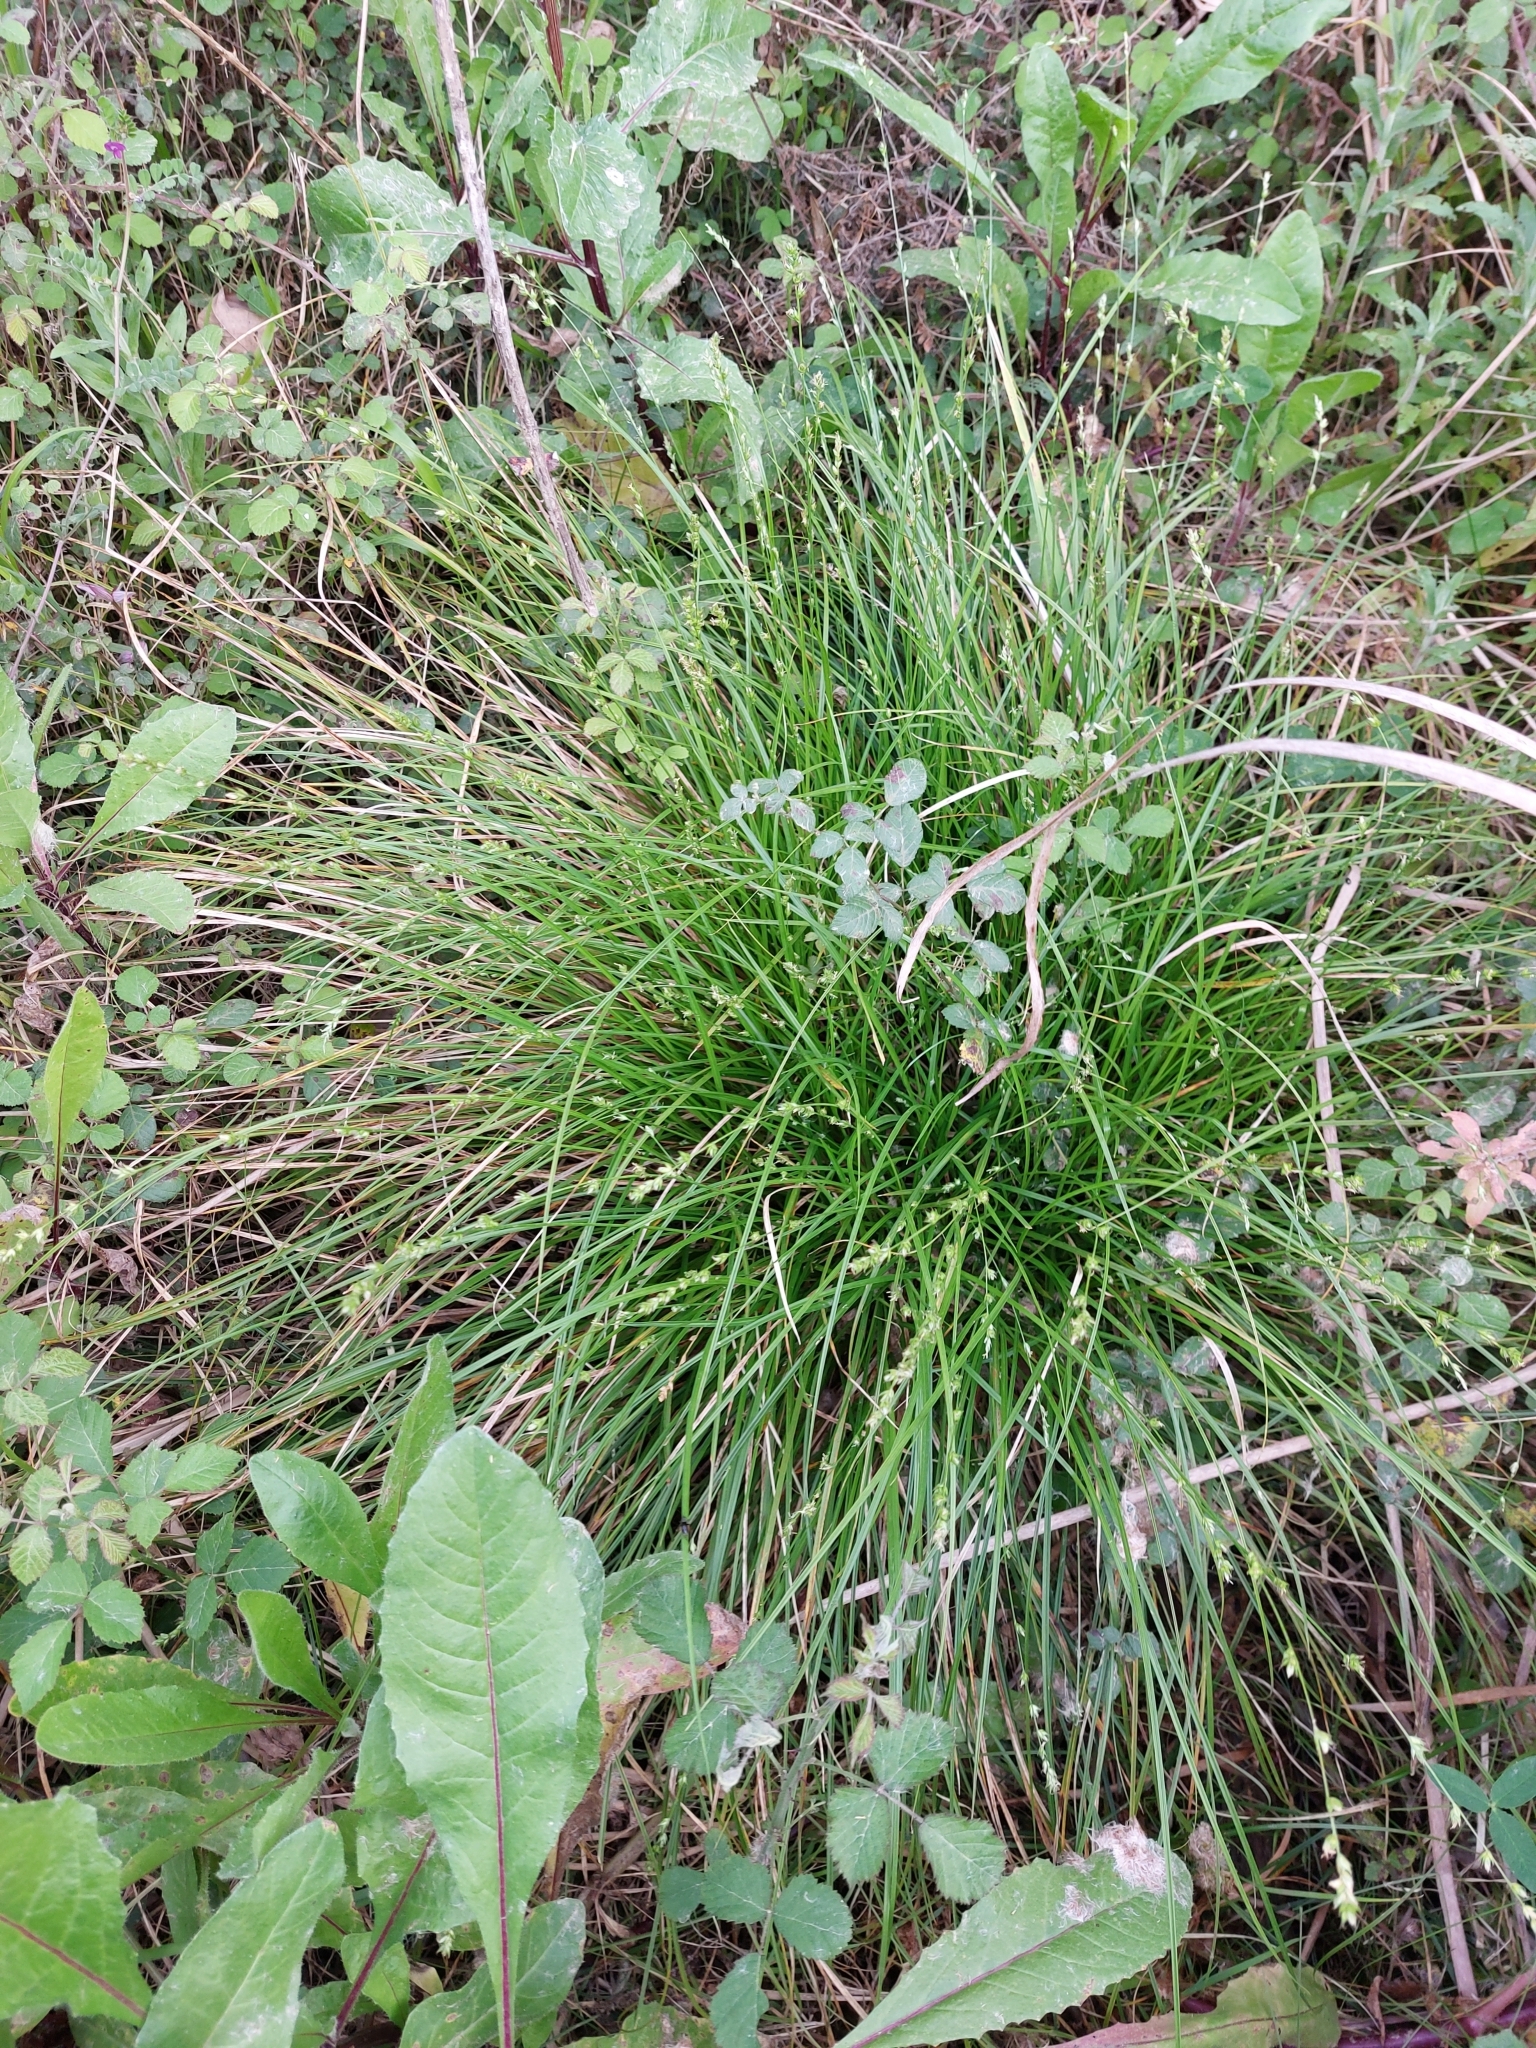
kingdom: Plantae
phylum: Tracheophyta
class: Liliopsida
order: Poales
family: Cyperaceae
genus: Carex
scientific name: Carex remota
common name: Remote sedge
